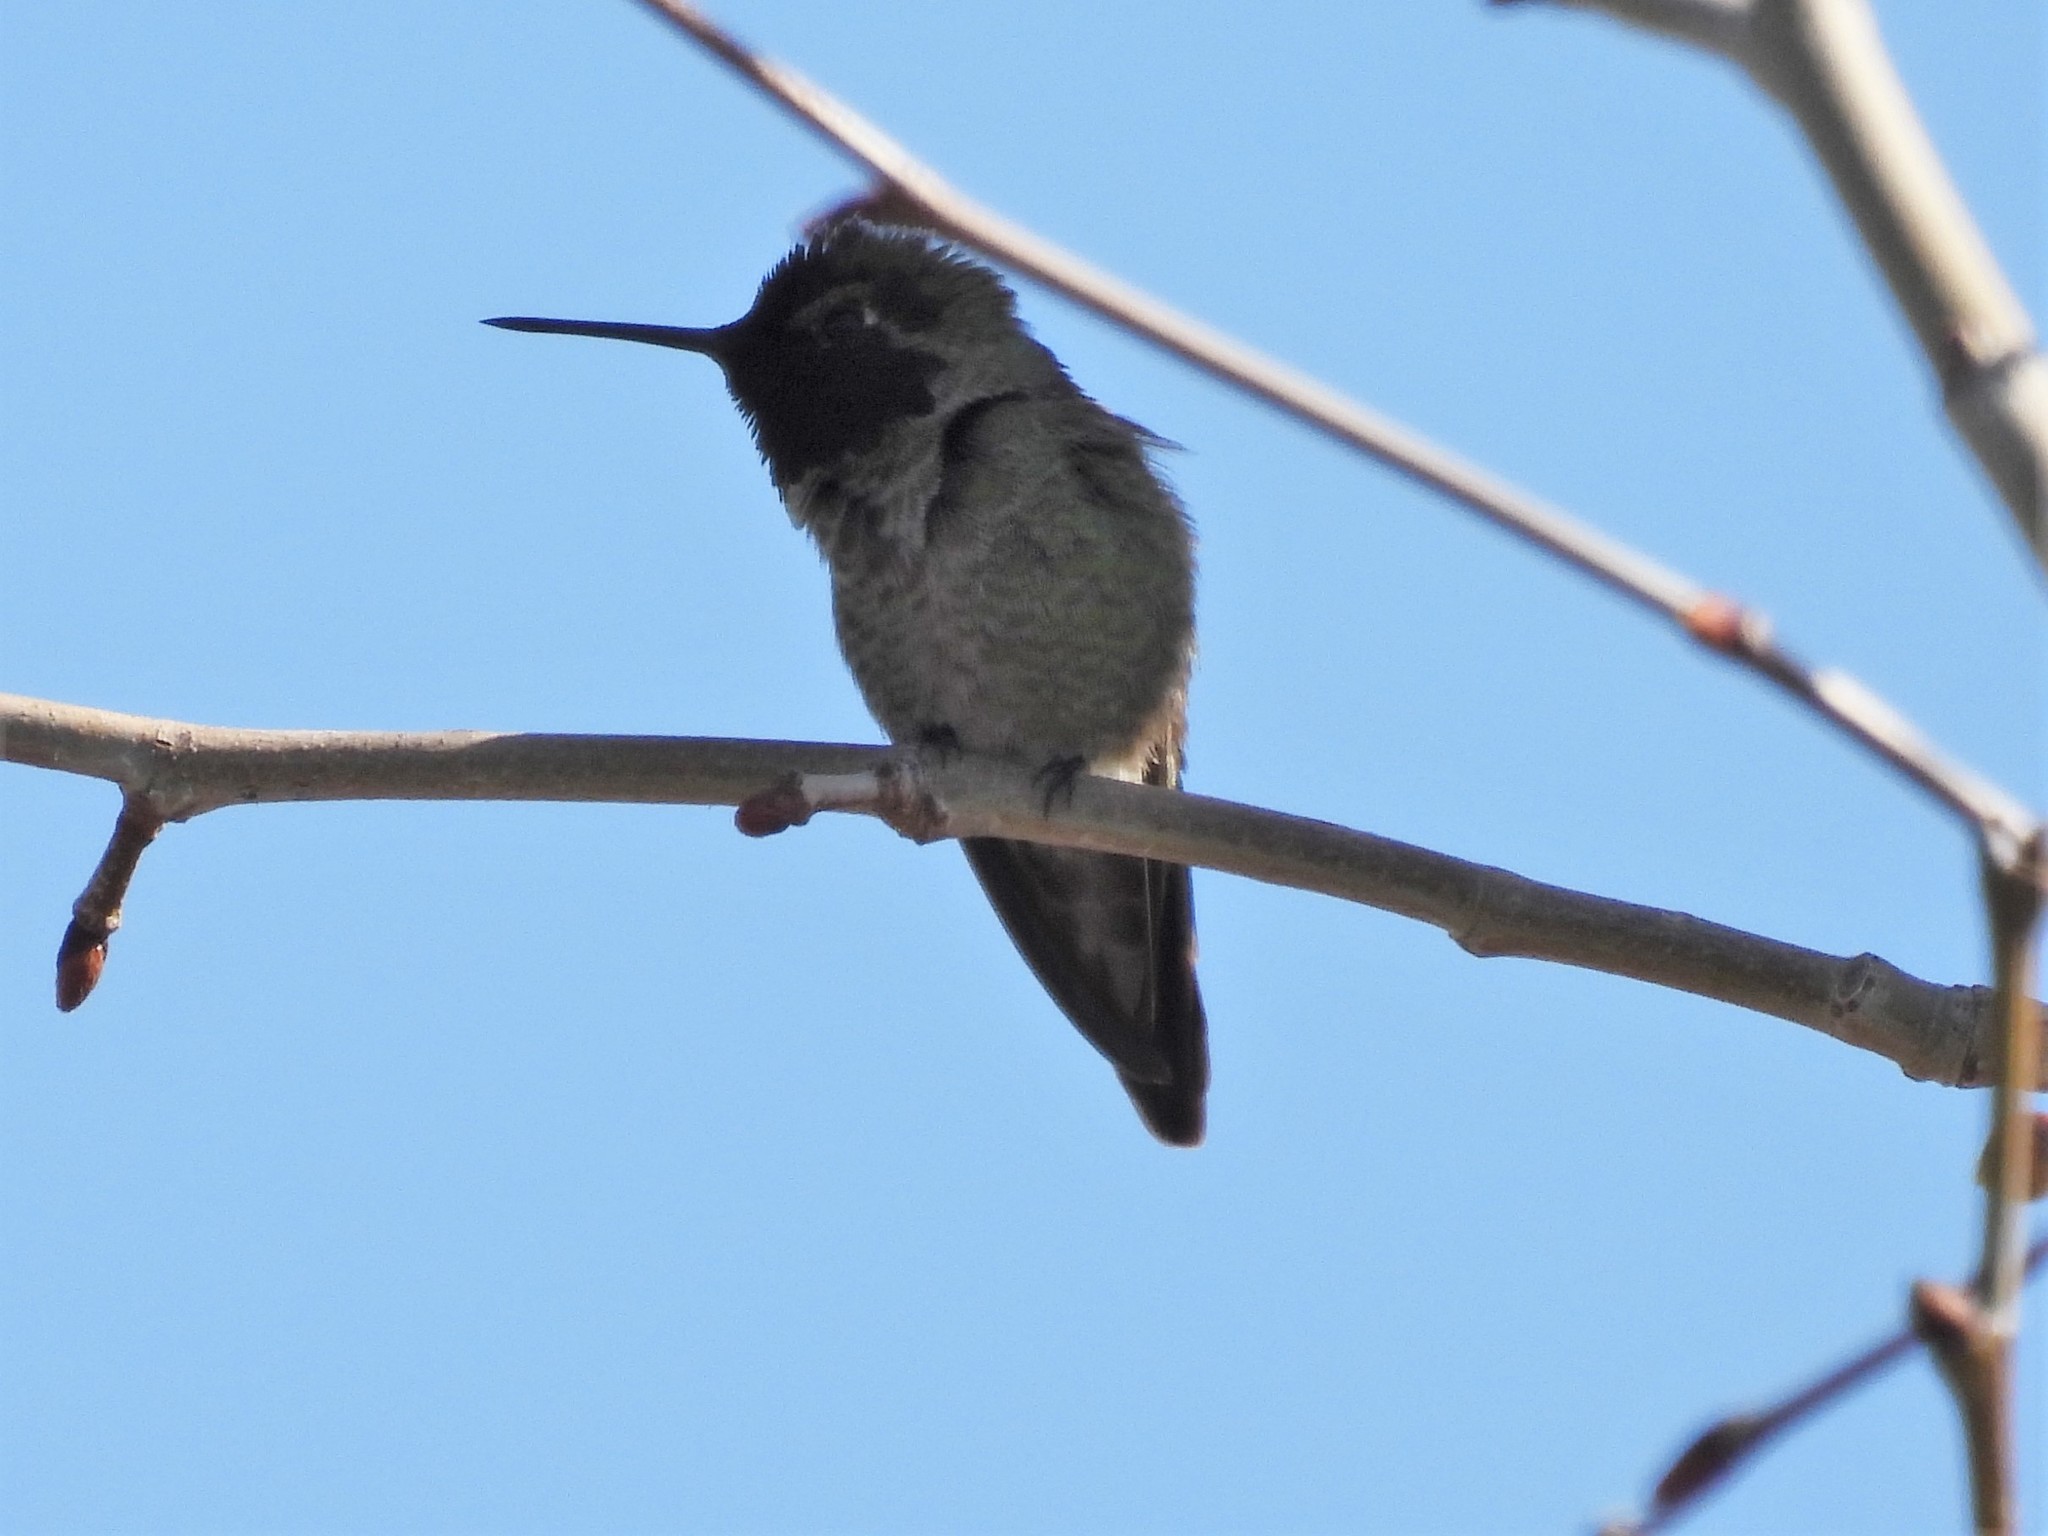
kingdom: Animalia
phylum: Chordata
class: Aves
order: Apodiformes
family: Trochilidae
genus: Calypte
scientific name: Calypte anna
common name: Anna's hummingbird
